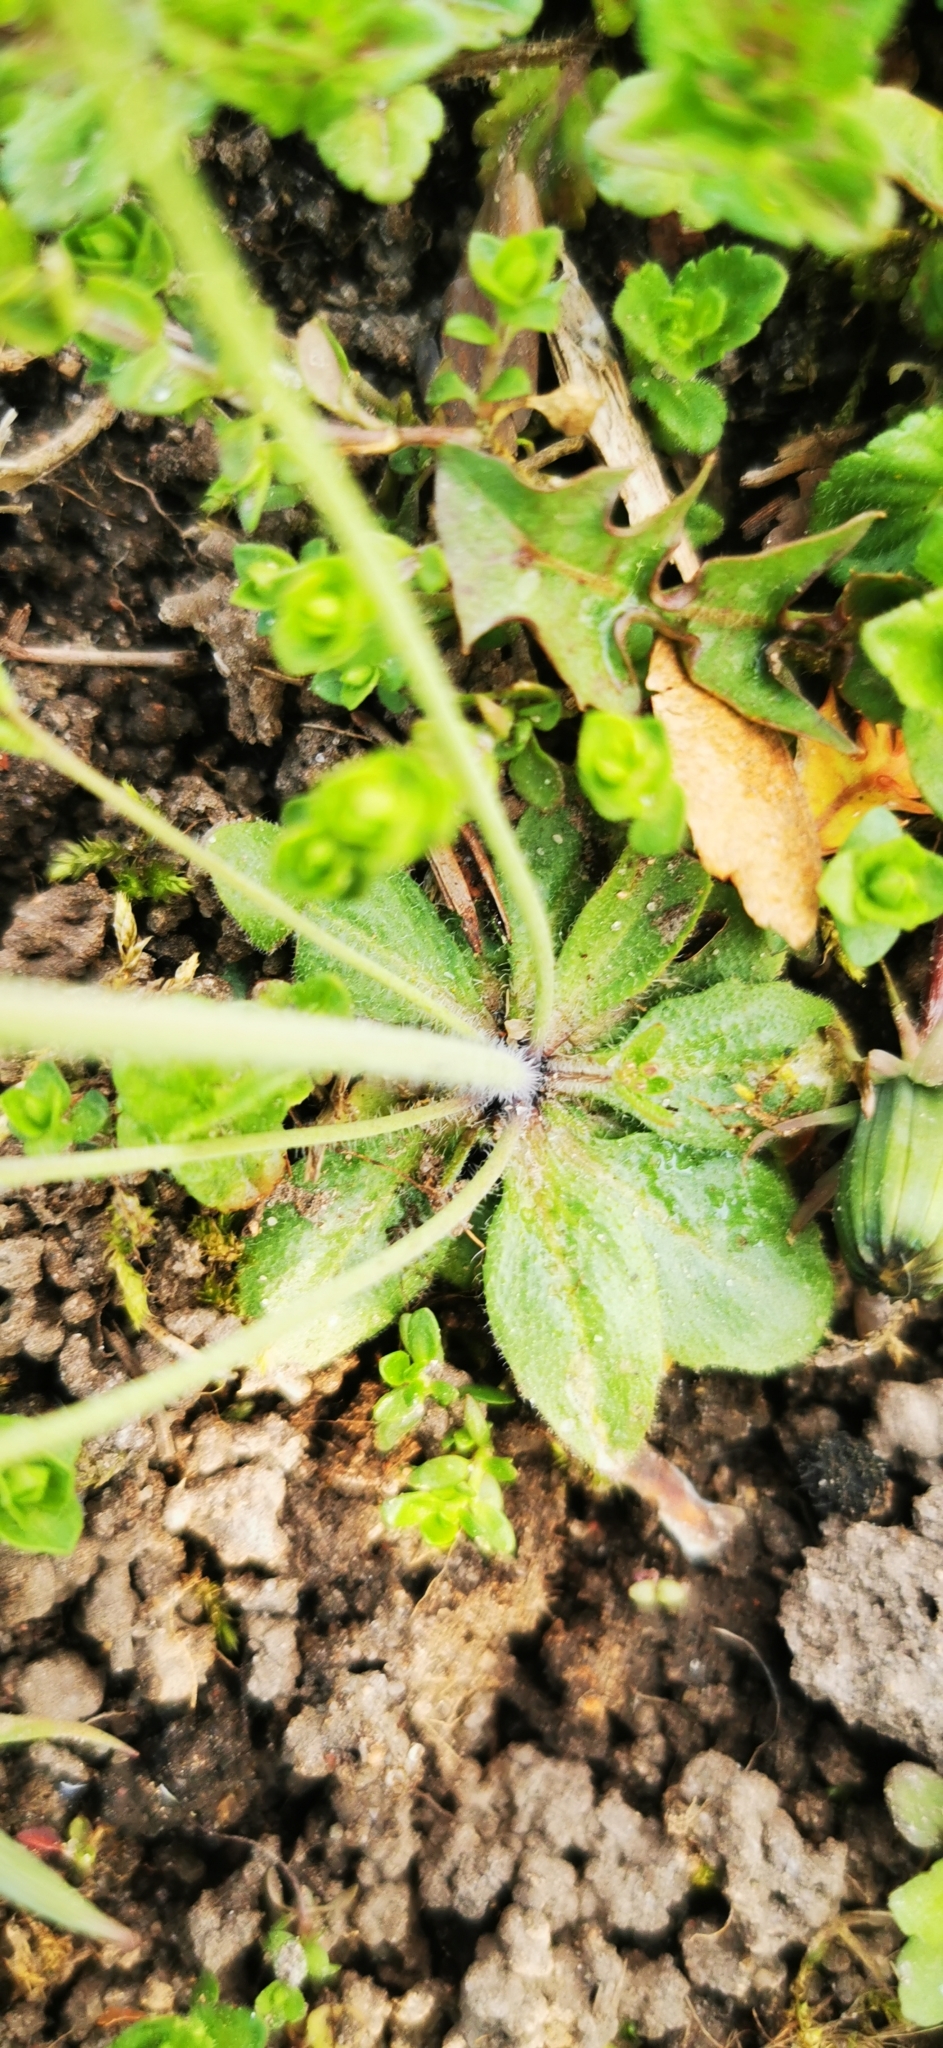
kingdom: Plantae
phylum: Tracheophyta
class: Magnoliopsida
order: Brassicales
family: Brassicaceae
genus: Arabidopsis
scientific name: Arabidopsis thaliana
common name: Thale cress
